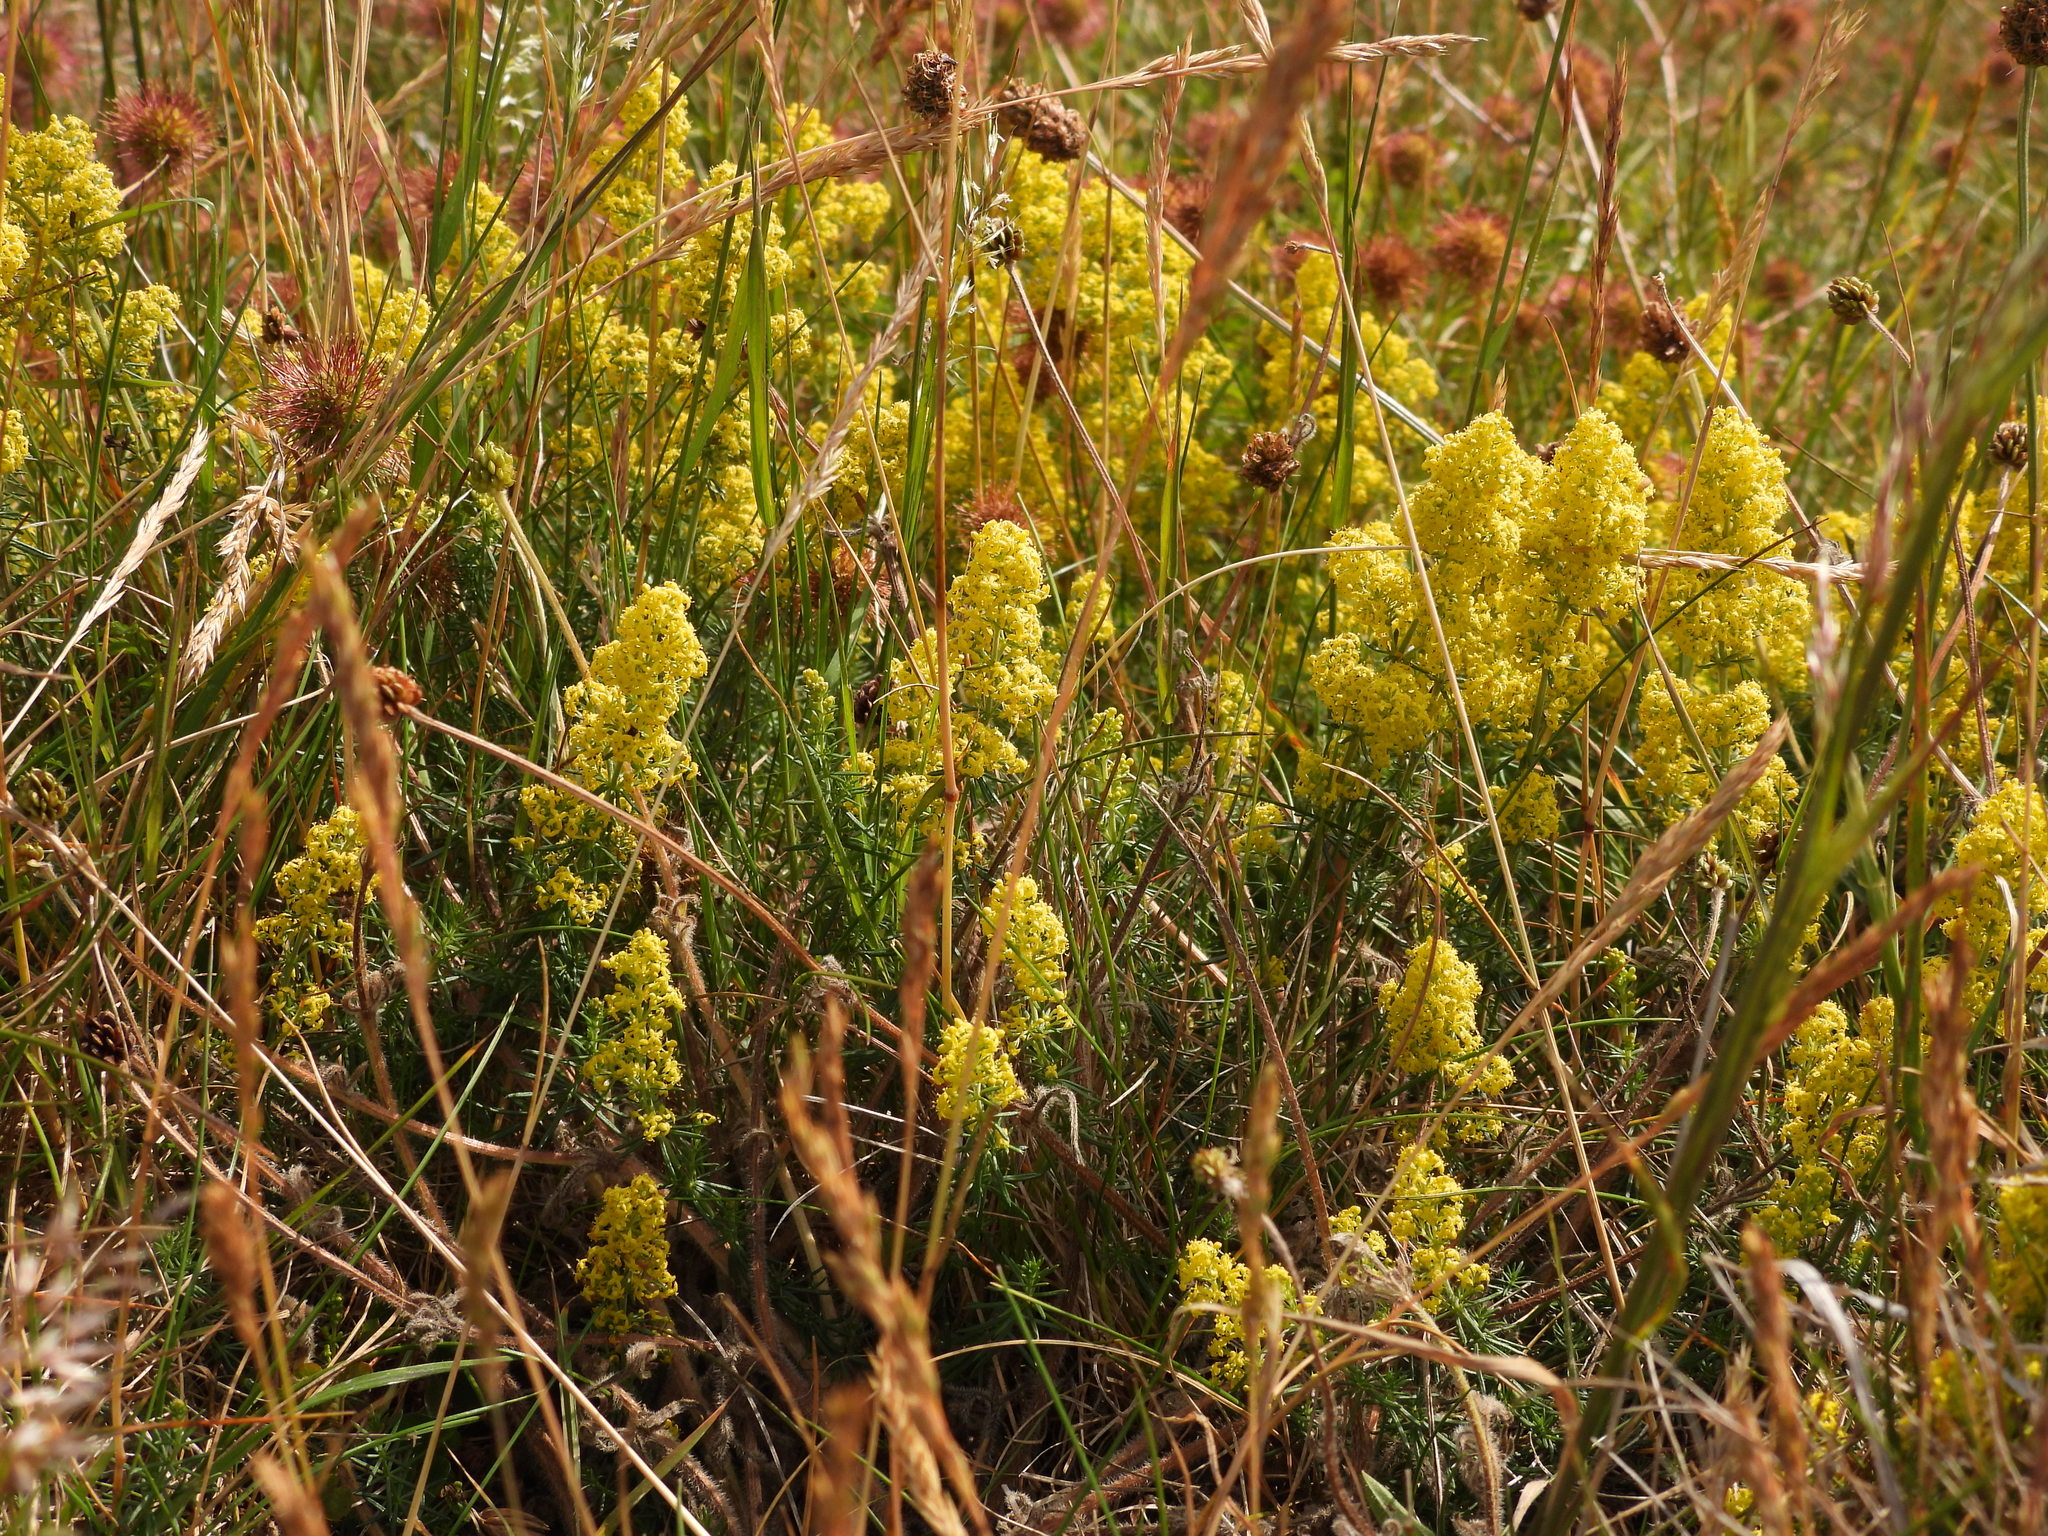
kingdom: Plantae
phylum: Tracheophyta
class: Magnoliopsida
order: Gentianales
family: Rubiaceae
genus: Galium
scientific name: Galium verum
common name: Lady's bedstraw
